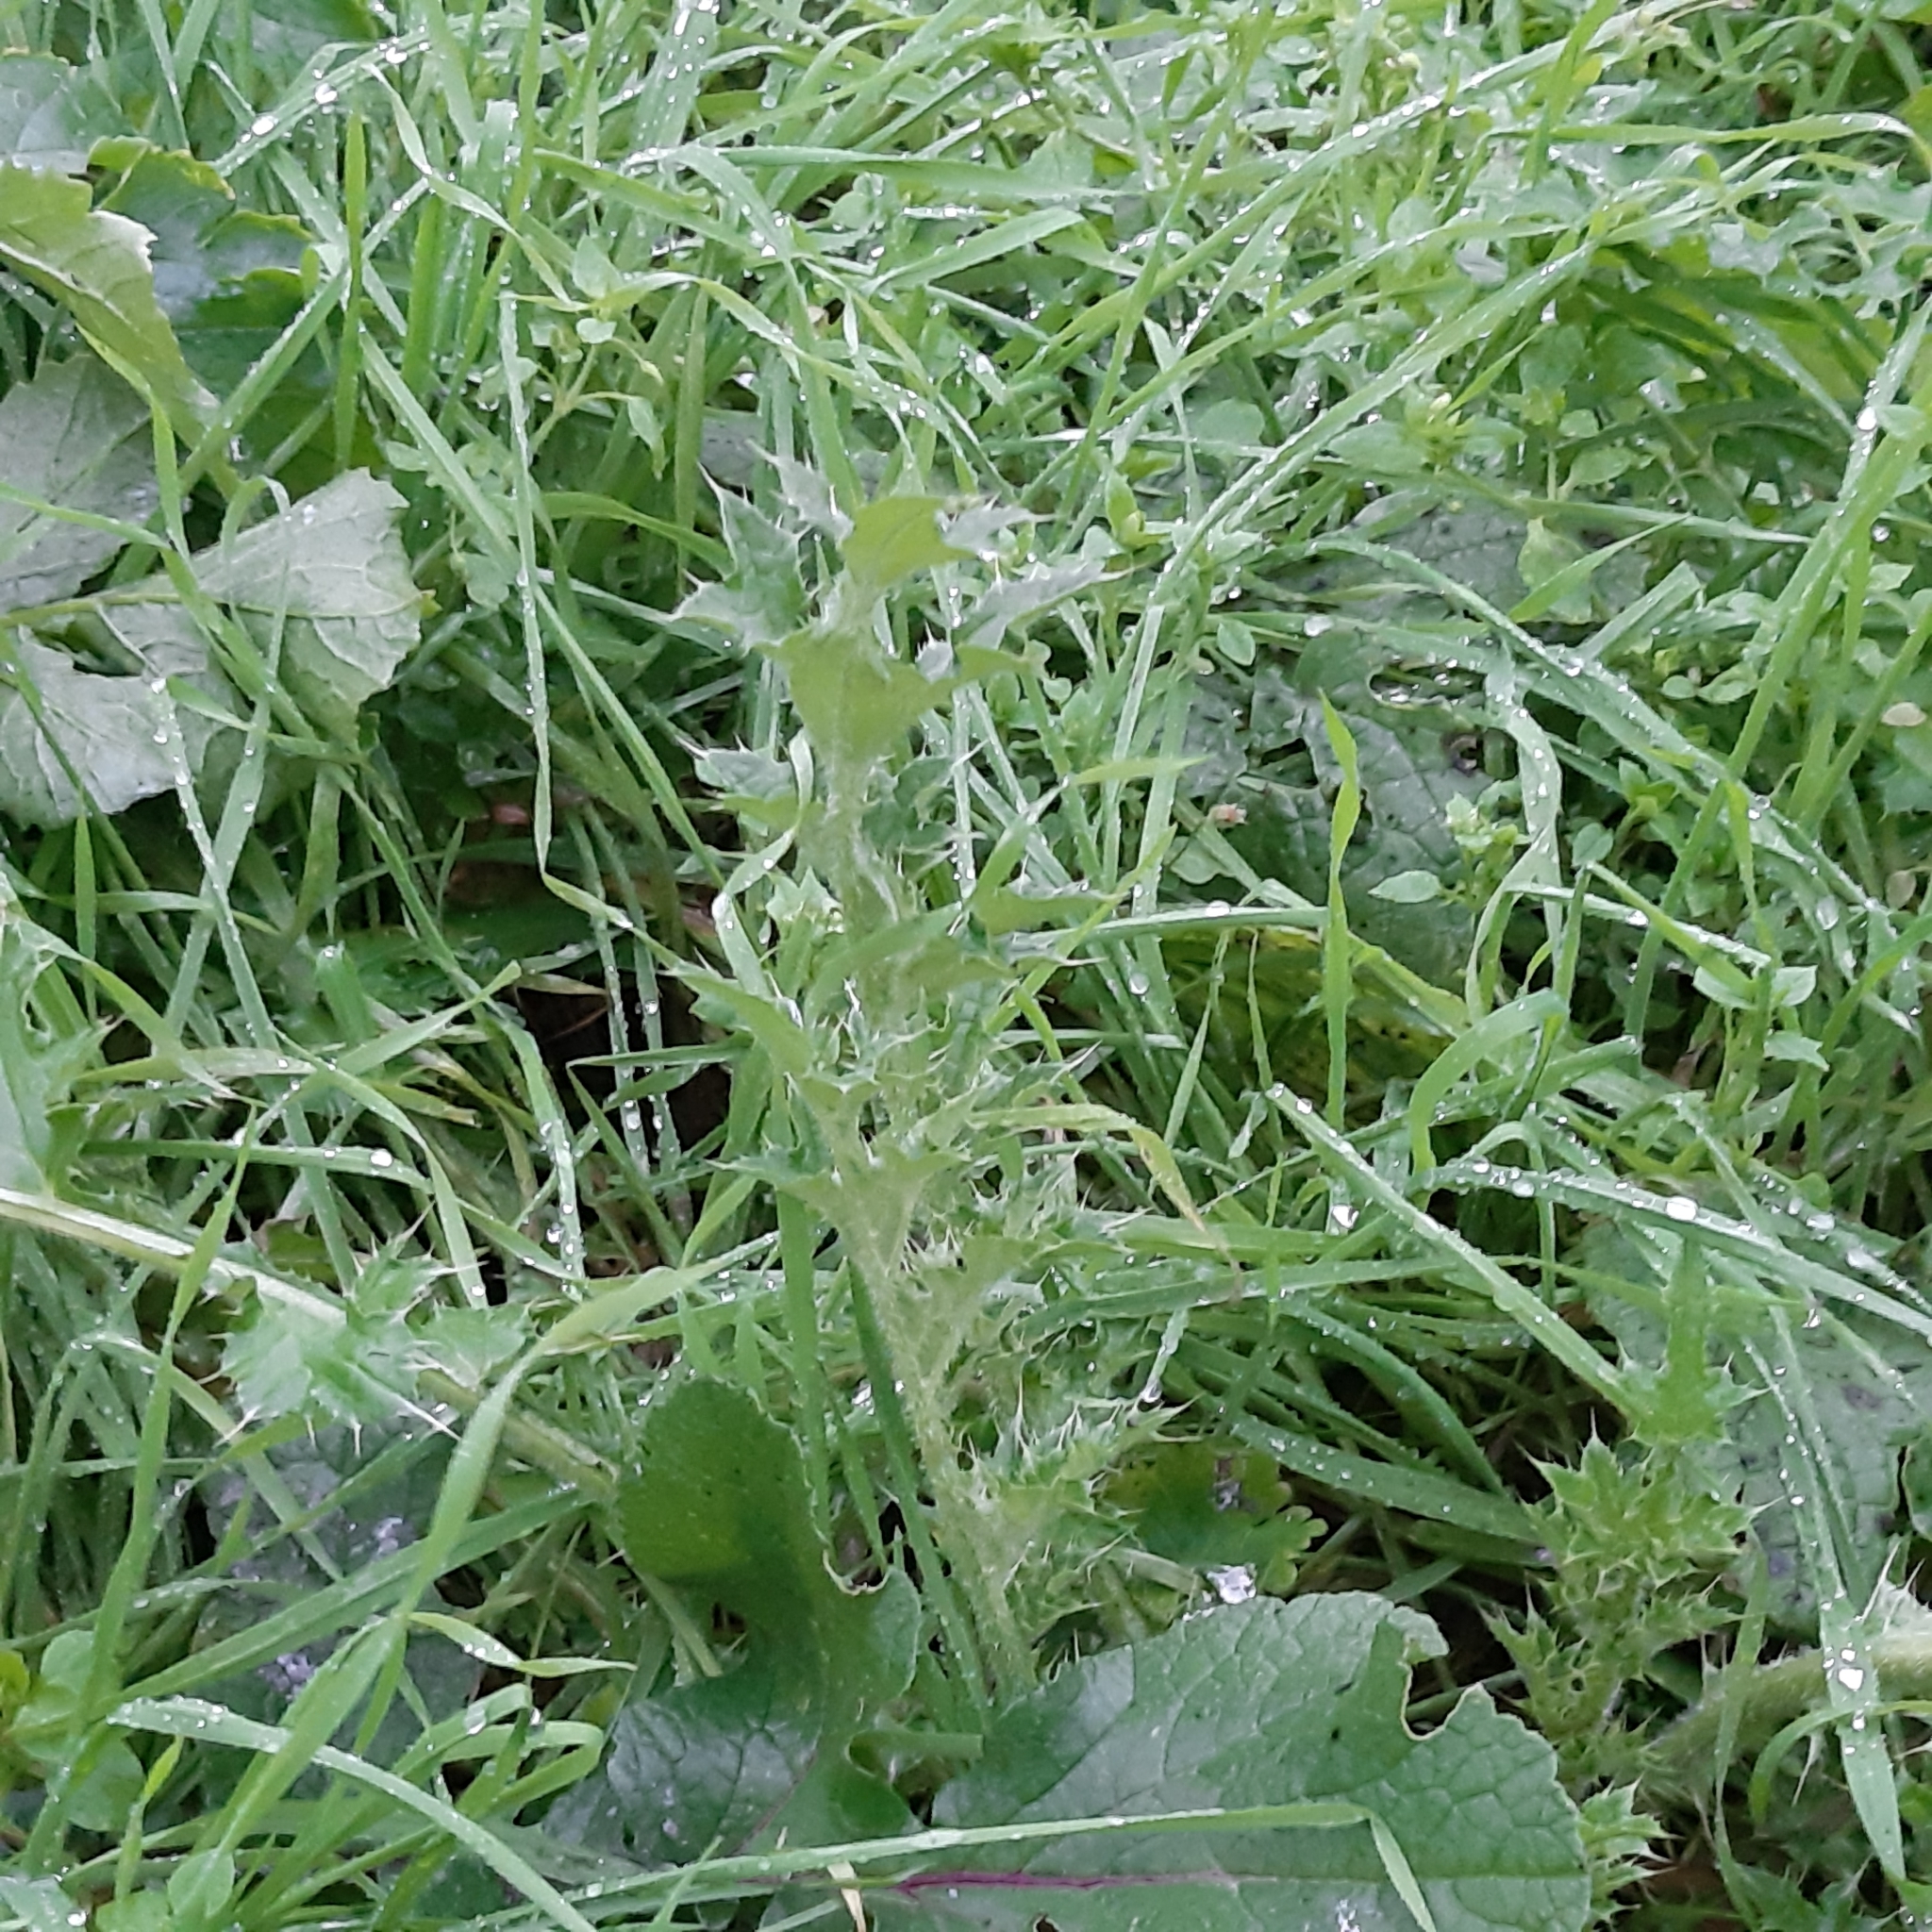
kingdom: Plantae
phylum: Tracheophyta
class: Magnoliopsida
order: Asterales
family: Asteraceae
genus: Cirsium
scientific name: Cirsium arvense
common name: Creeping thistle
